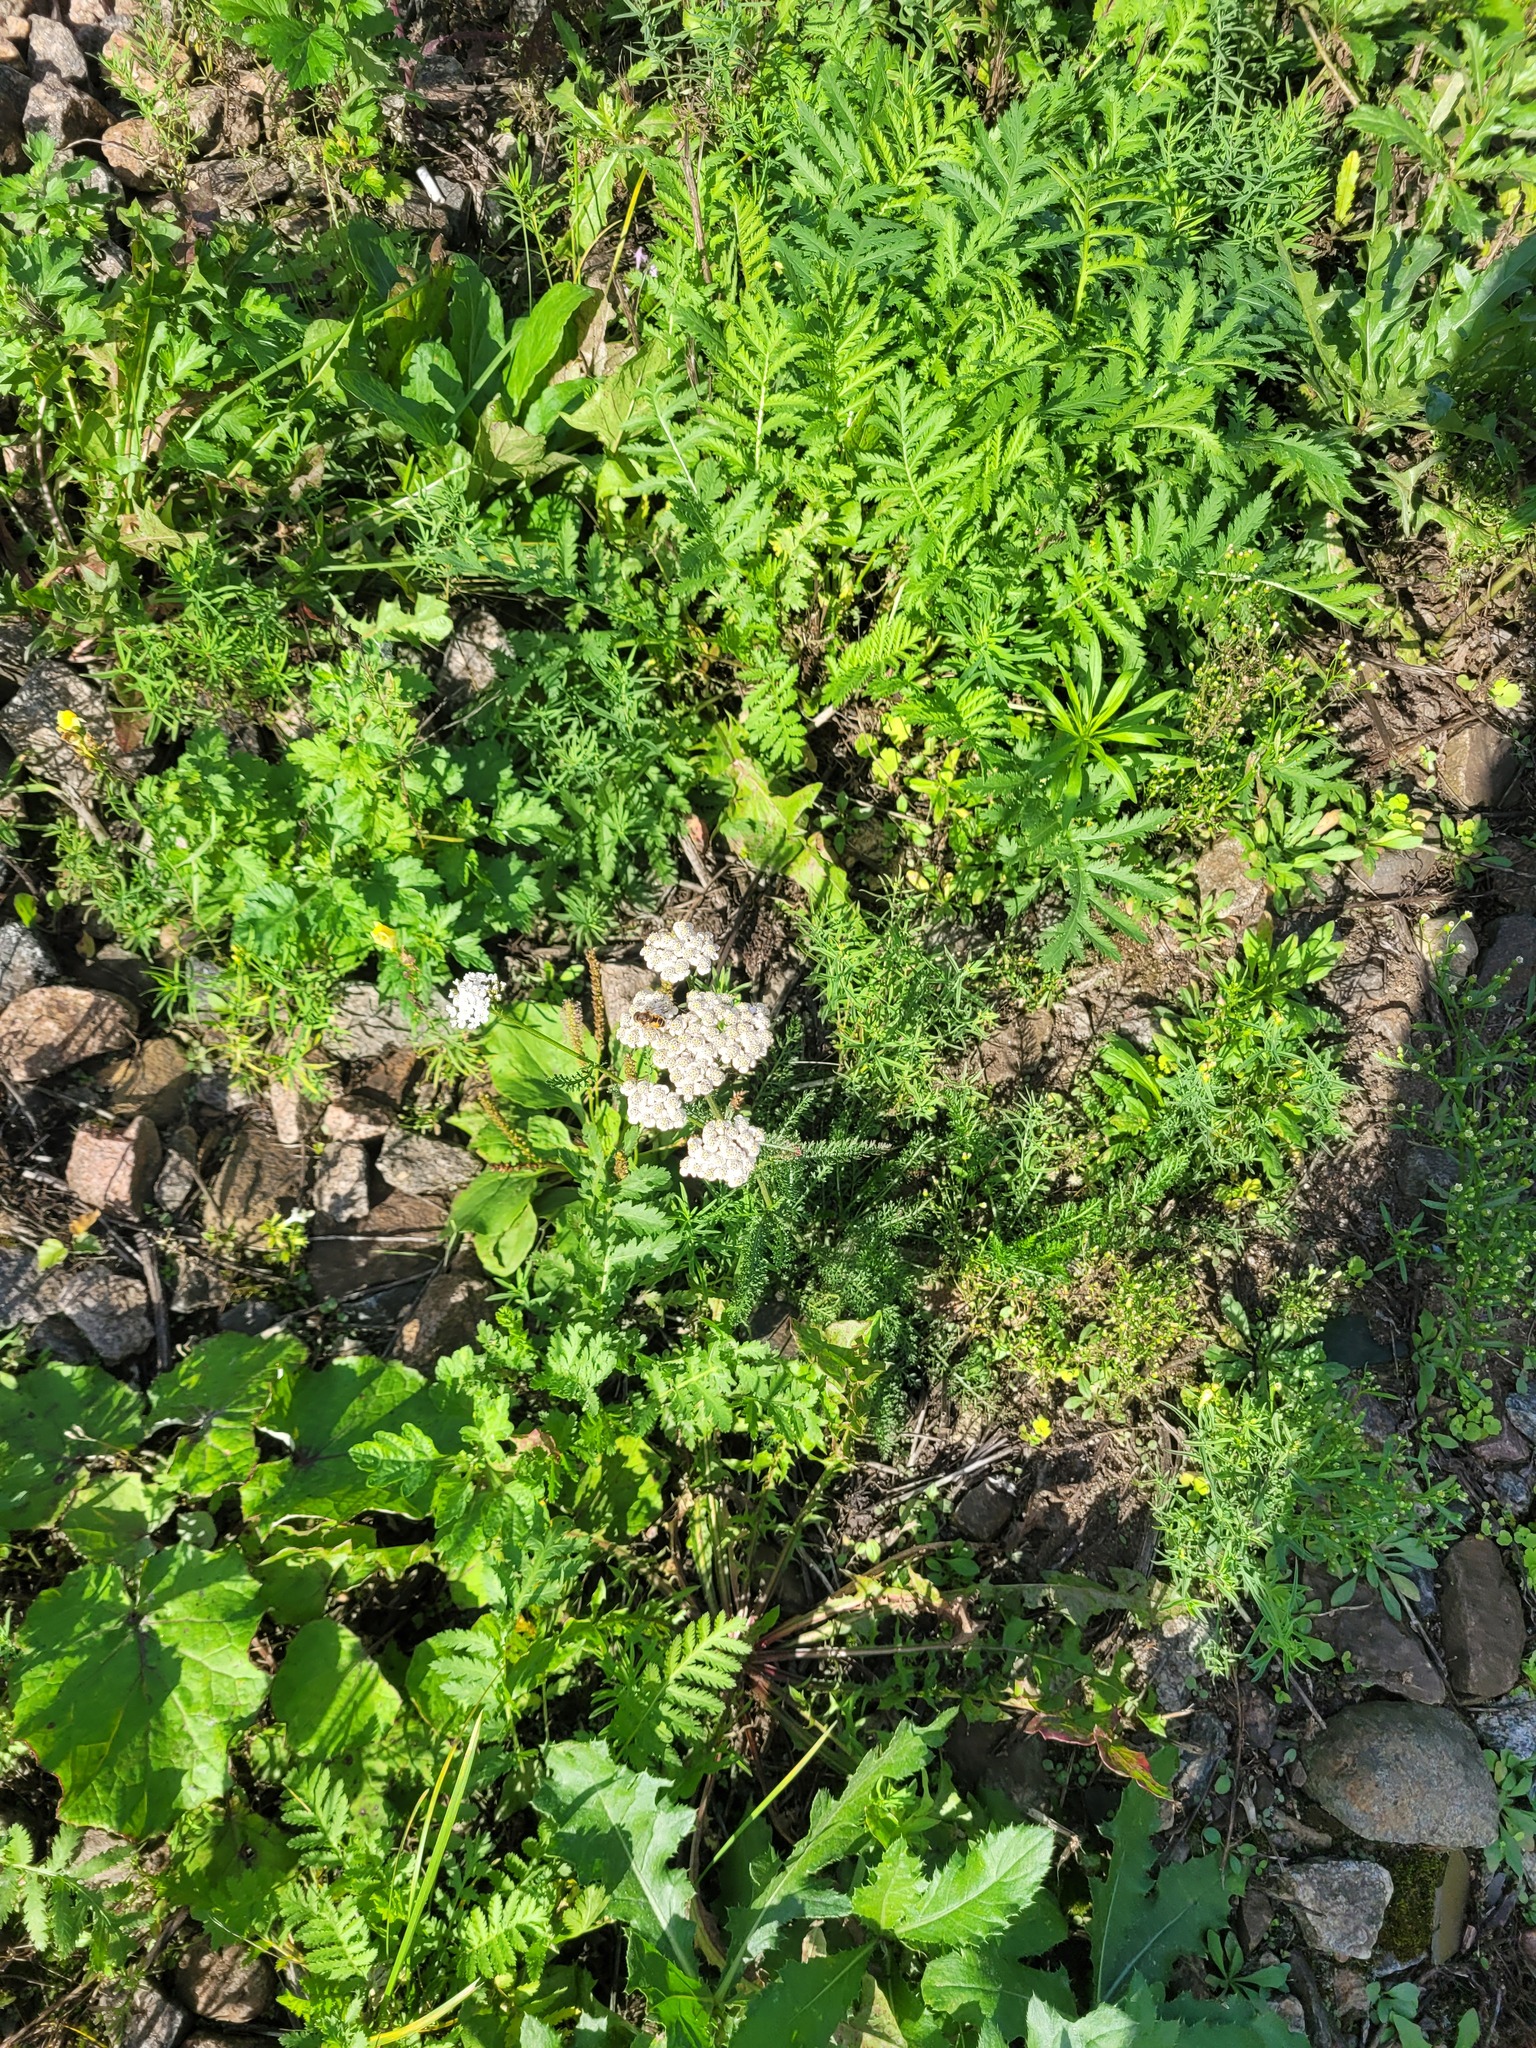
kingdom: Plantae
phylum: Tracheophyta
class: Magnoliopsida
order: Asterales
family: Asteraceae
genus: Achillea
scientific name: Achillea millefolium
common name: Yarrow
